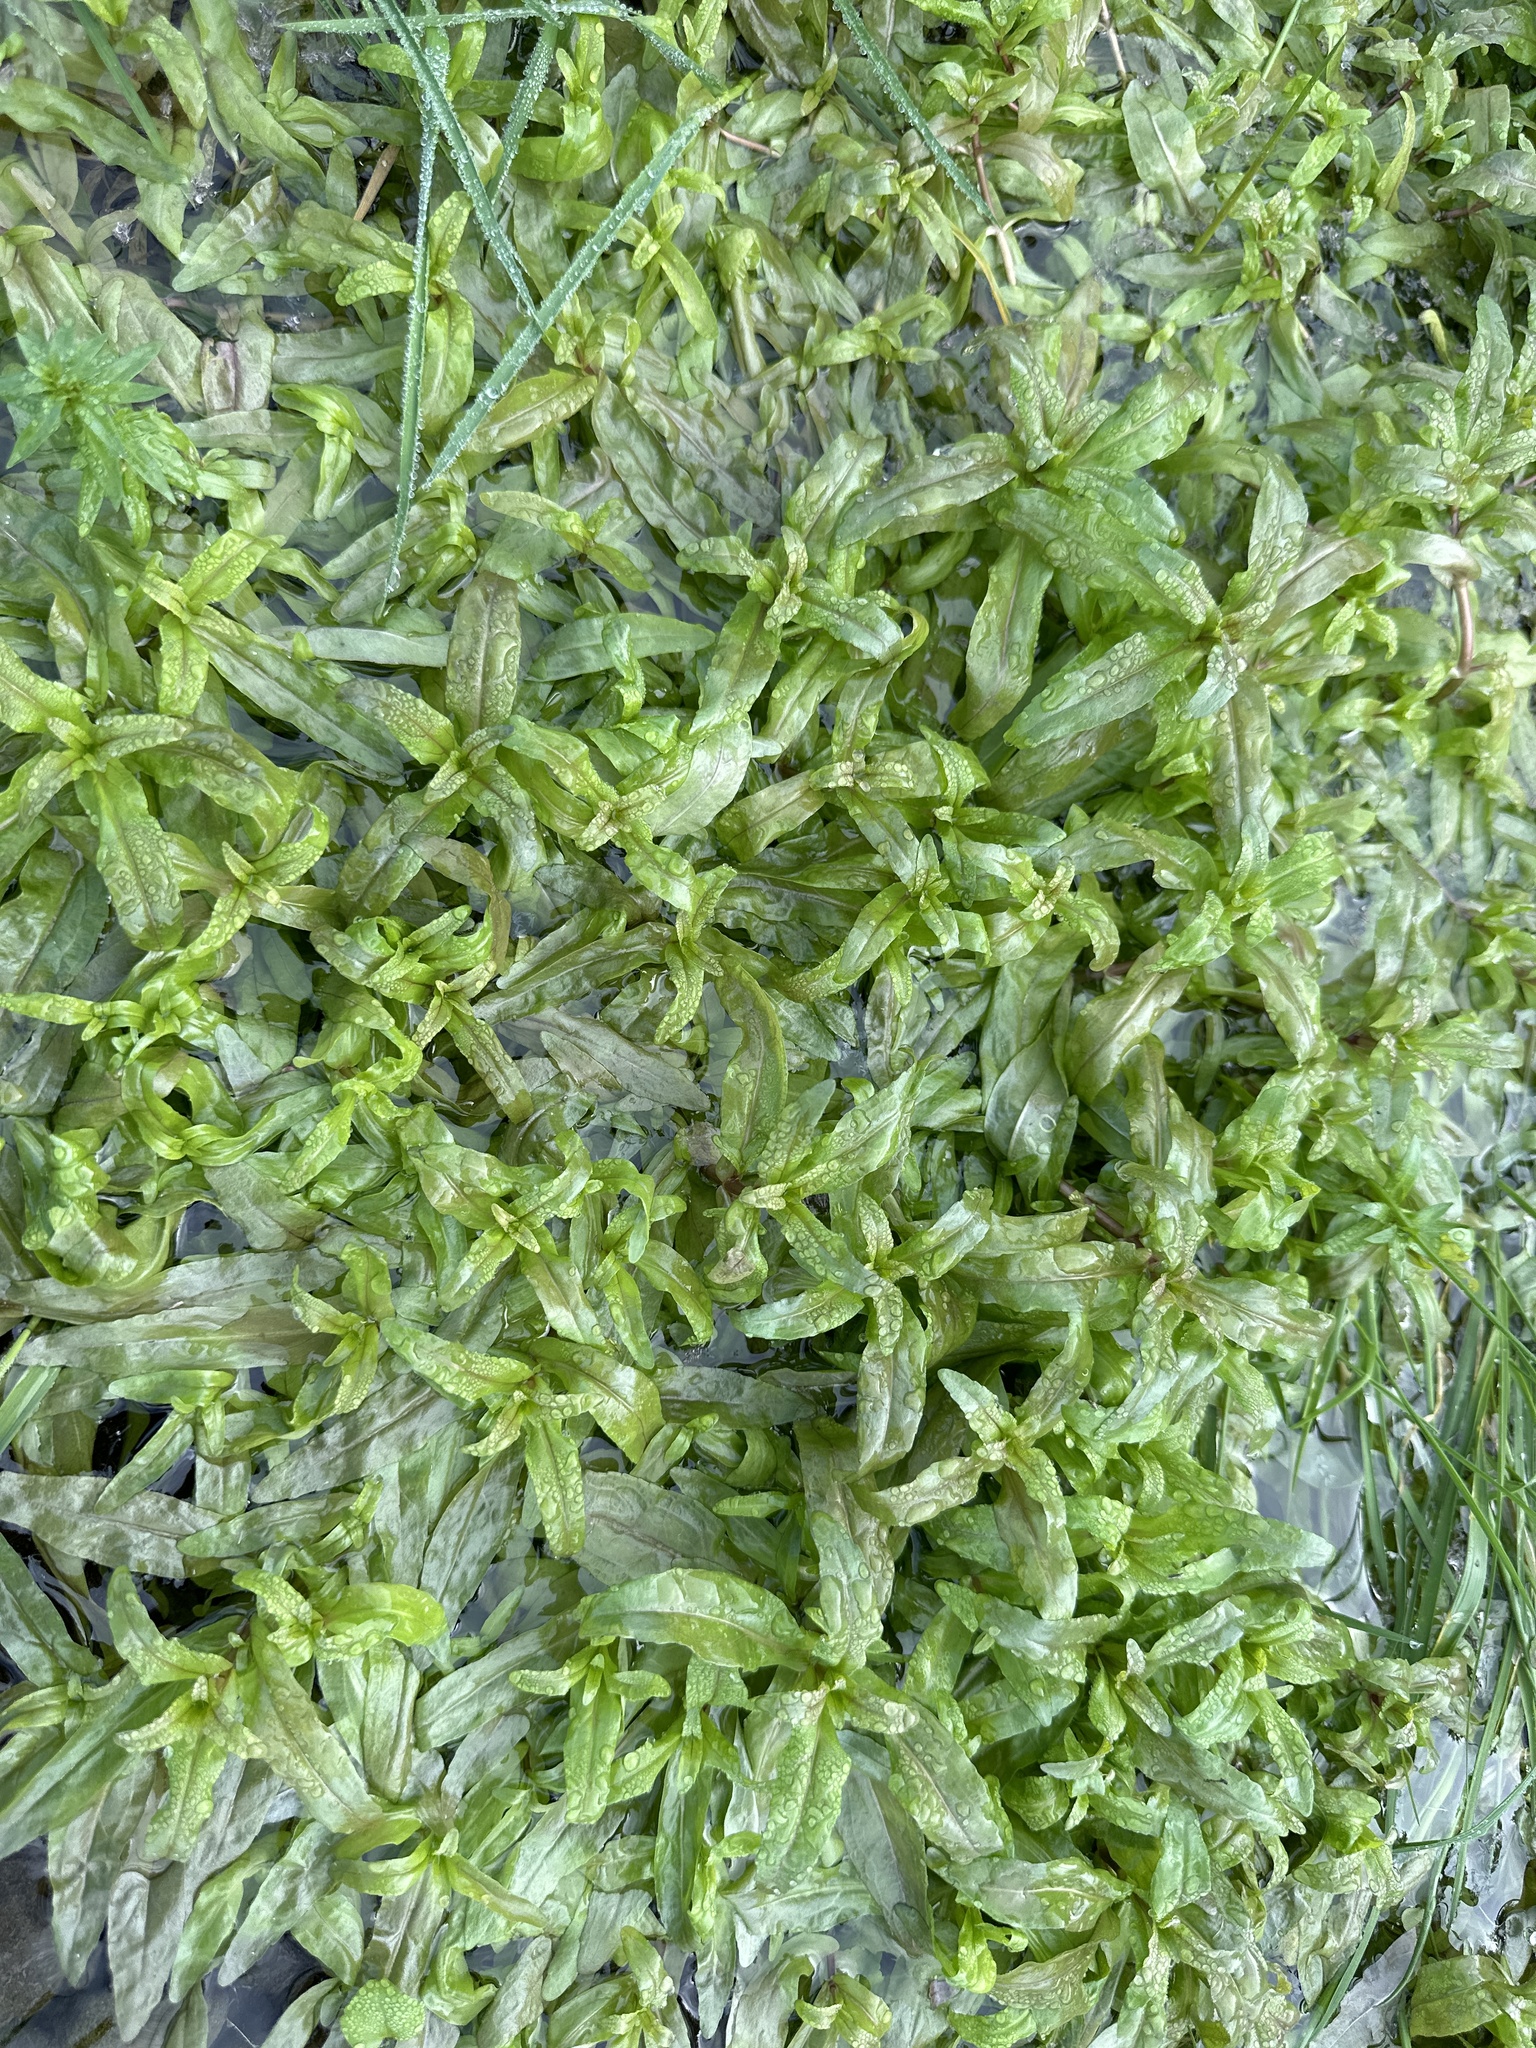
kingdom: Plantae
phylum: Tracheophyta
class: Magnoliopsida
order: Lamiales
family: Plantaginaceae
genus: Veronica
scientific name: Veronica anagallis-aquatica
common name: Water speedwell
